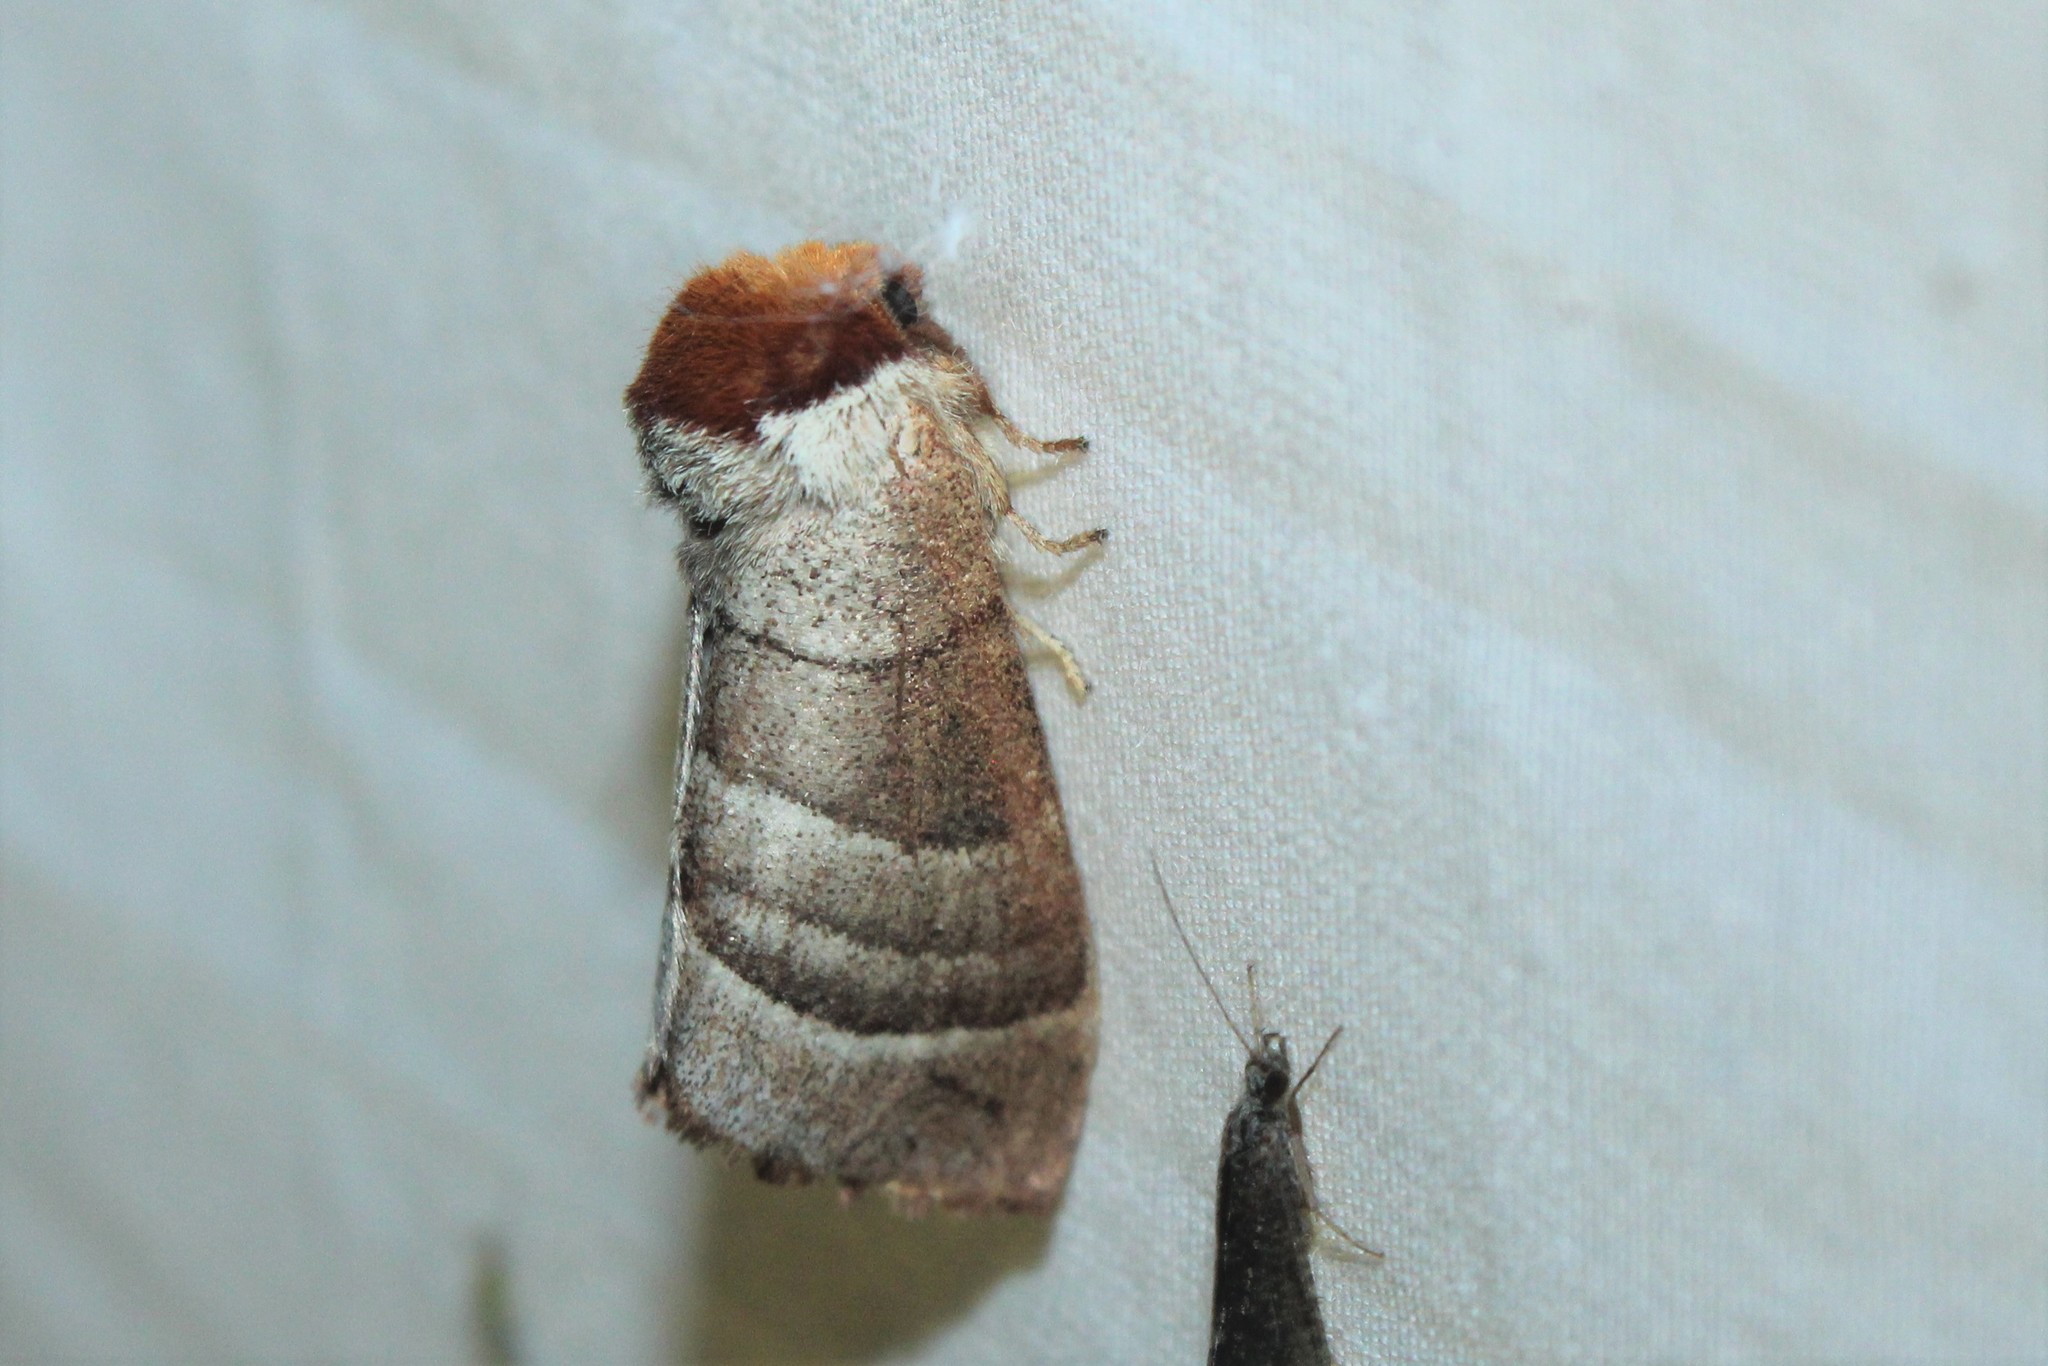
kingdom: Animalia
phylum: Arthropoda
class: Insecta
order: Lepidoptera
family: Notodontidae
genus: Datana
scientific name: Datana integerrima
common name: Walnut caterpillar
